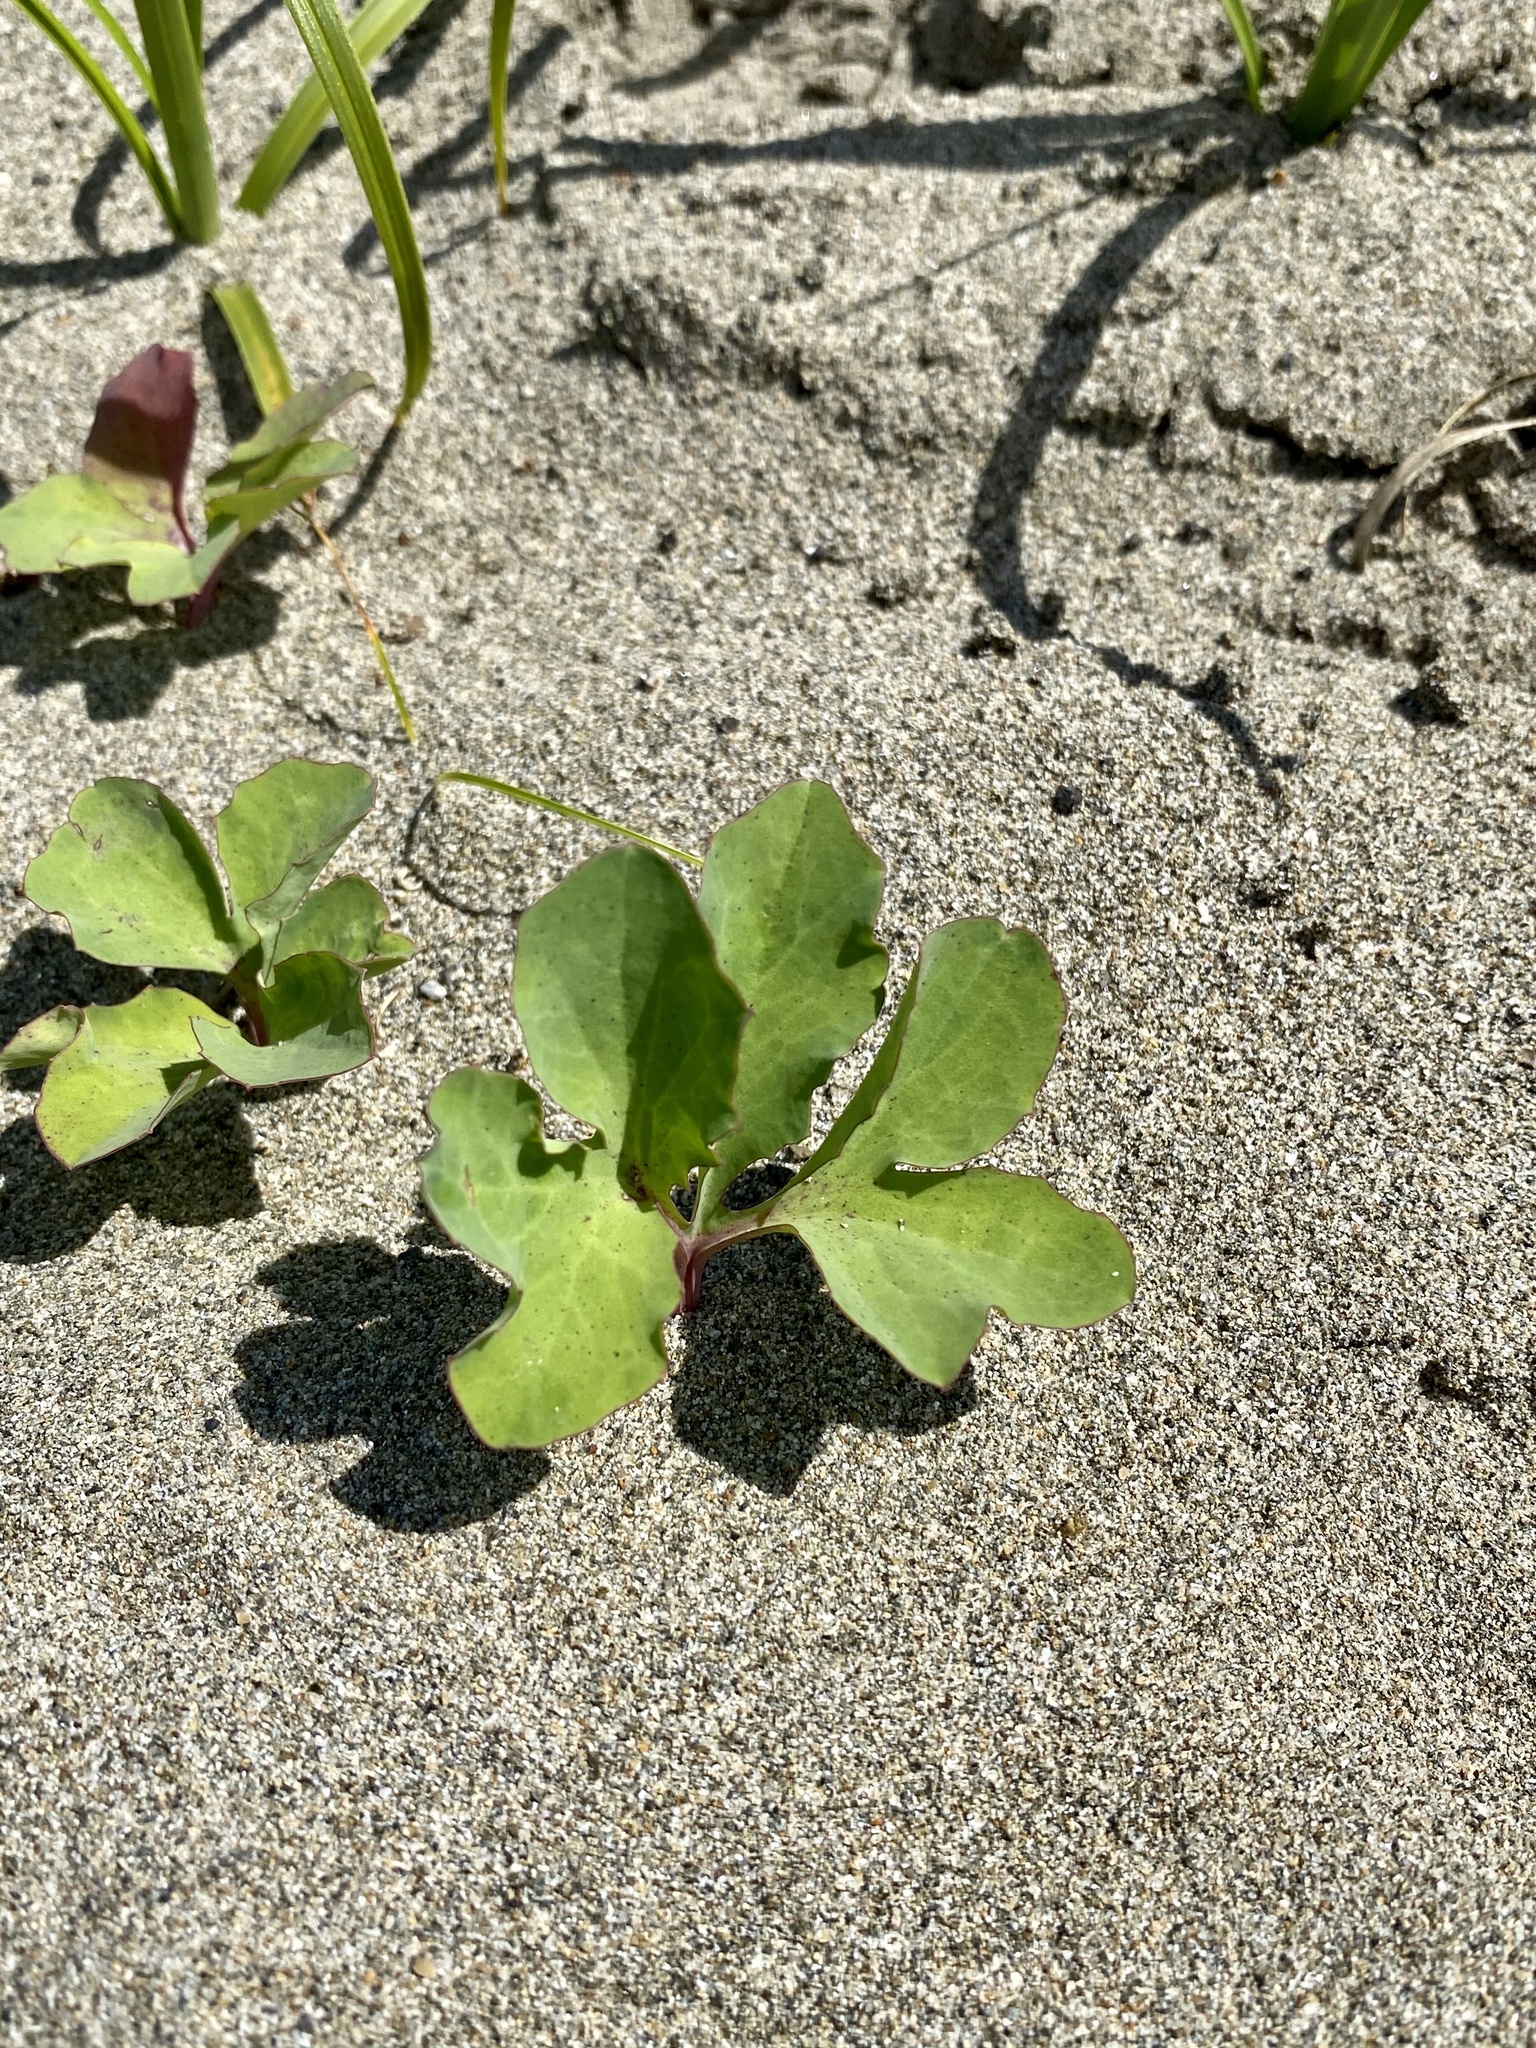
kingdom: Plantae
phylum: Tracheophyta
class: Magnoliopsida
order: Asterales
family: Asteraceae
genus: Ixeris
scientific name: Ixeris repens
